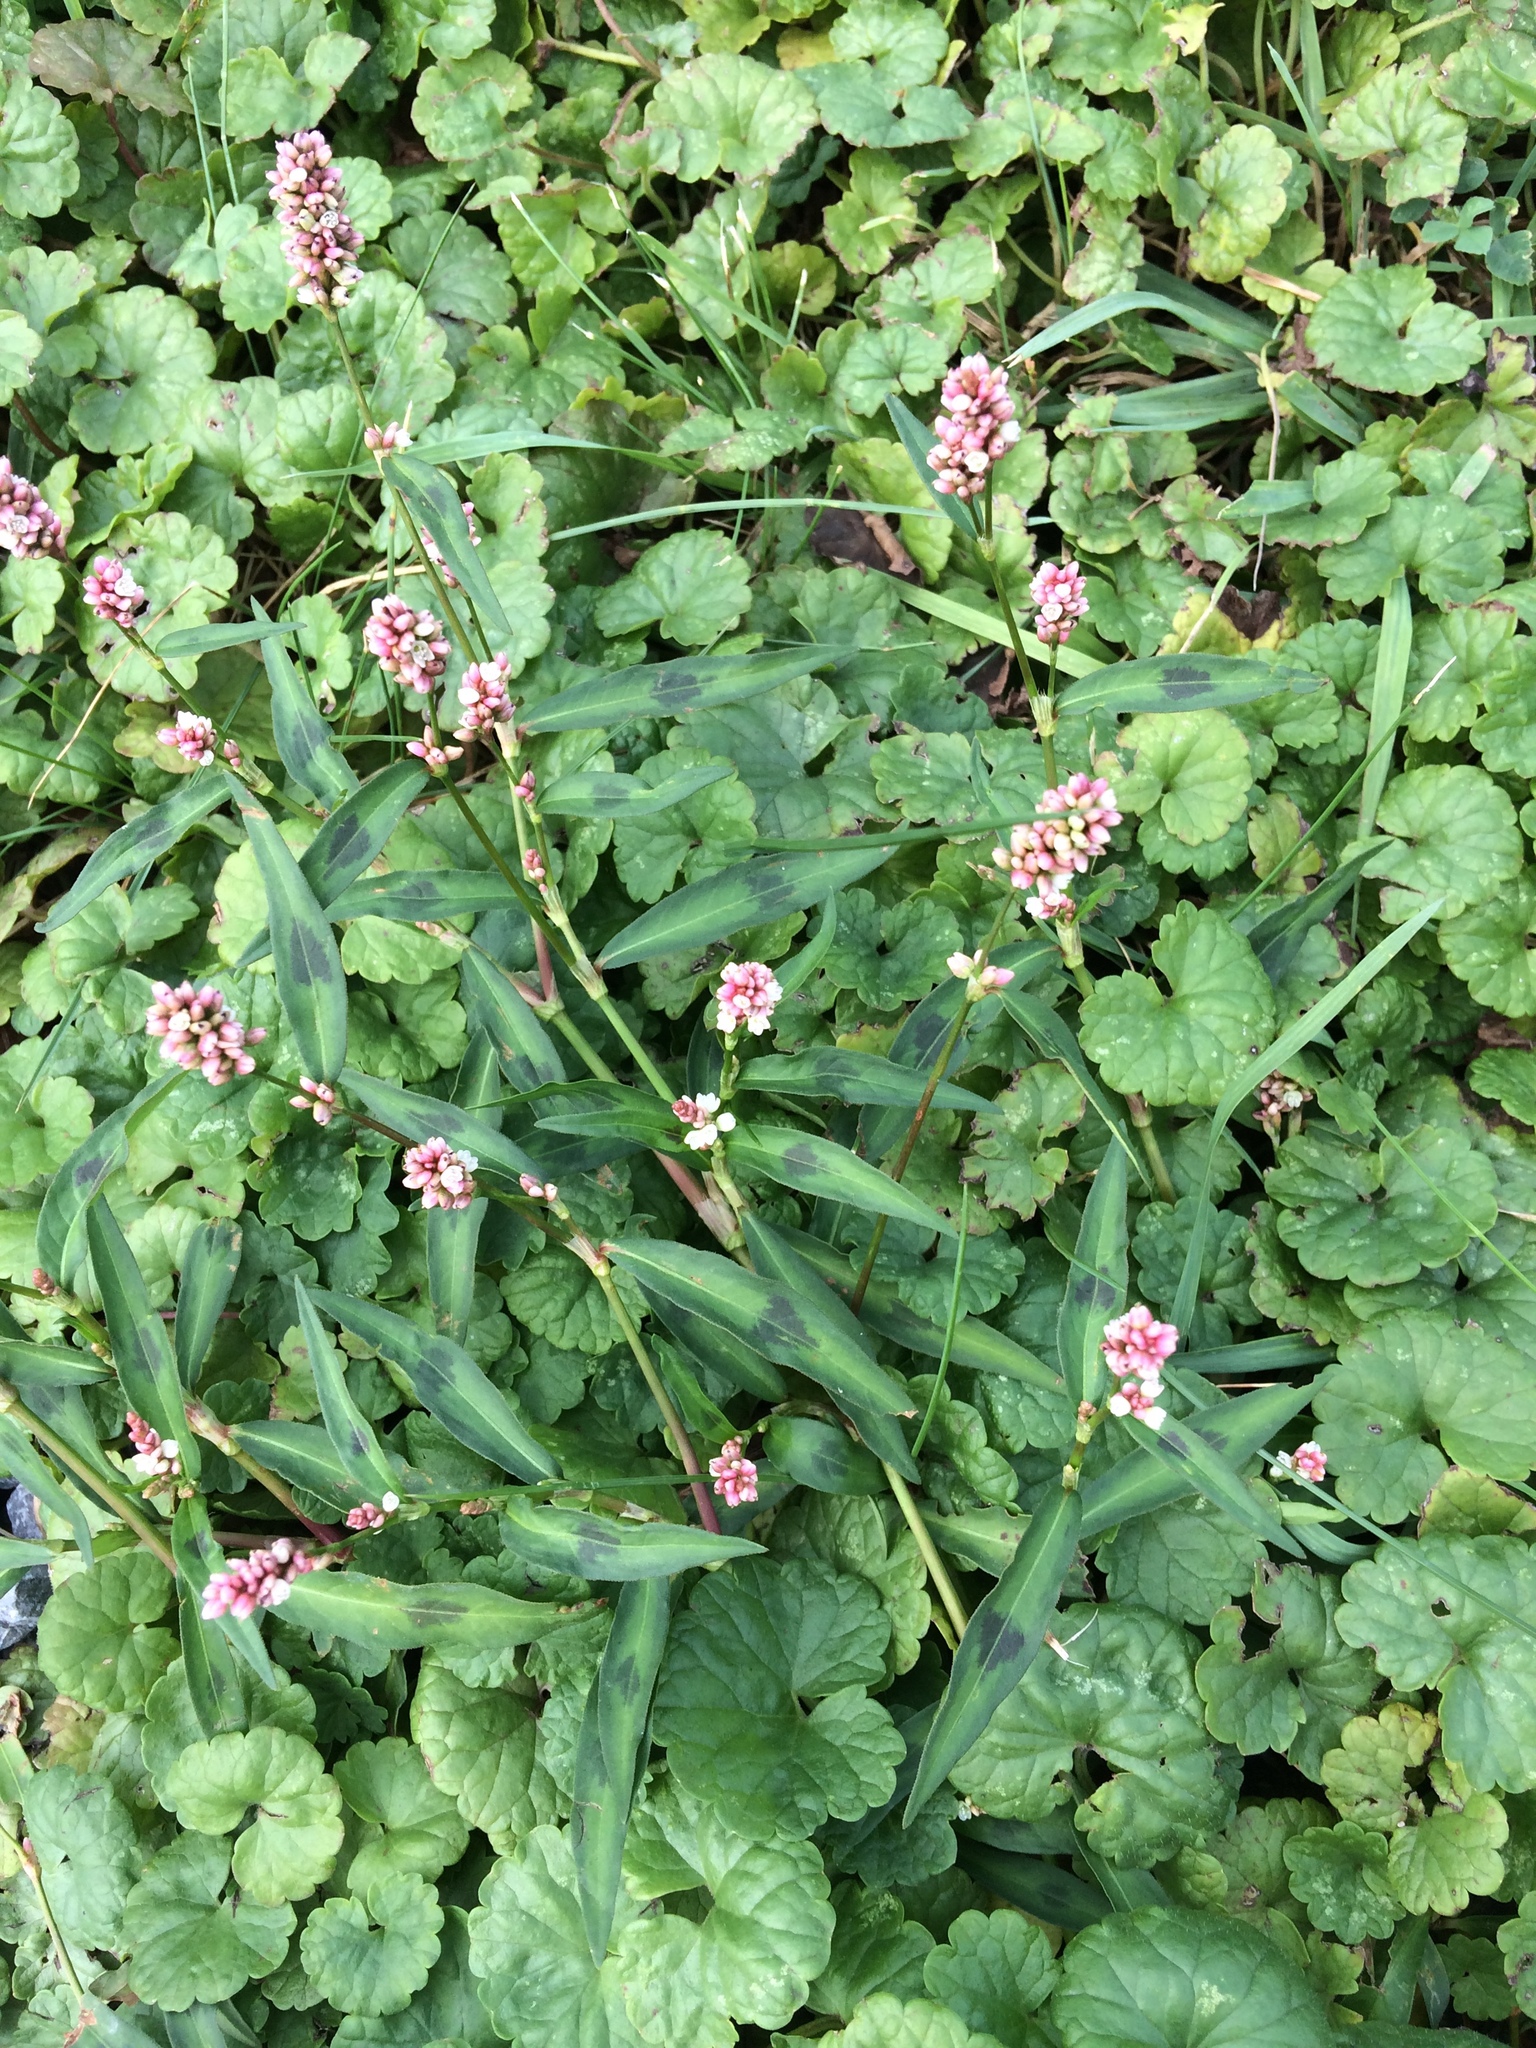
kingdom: Plantae
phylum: Tracheophyta
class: Magnoliopsida
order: Lamiales
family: Lamiaceae
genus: Glechoma
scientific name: Glechoma hederacea
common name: Ground ivy
